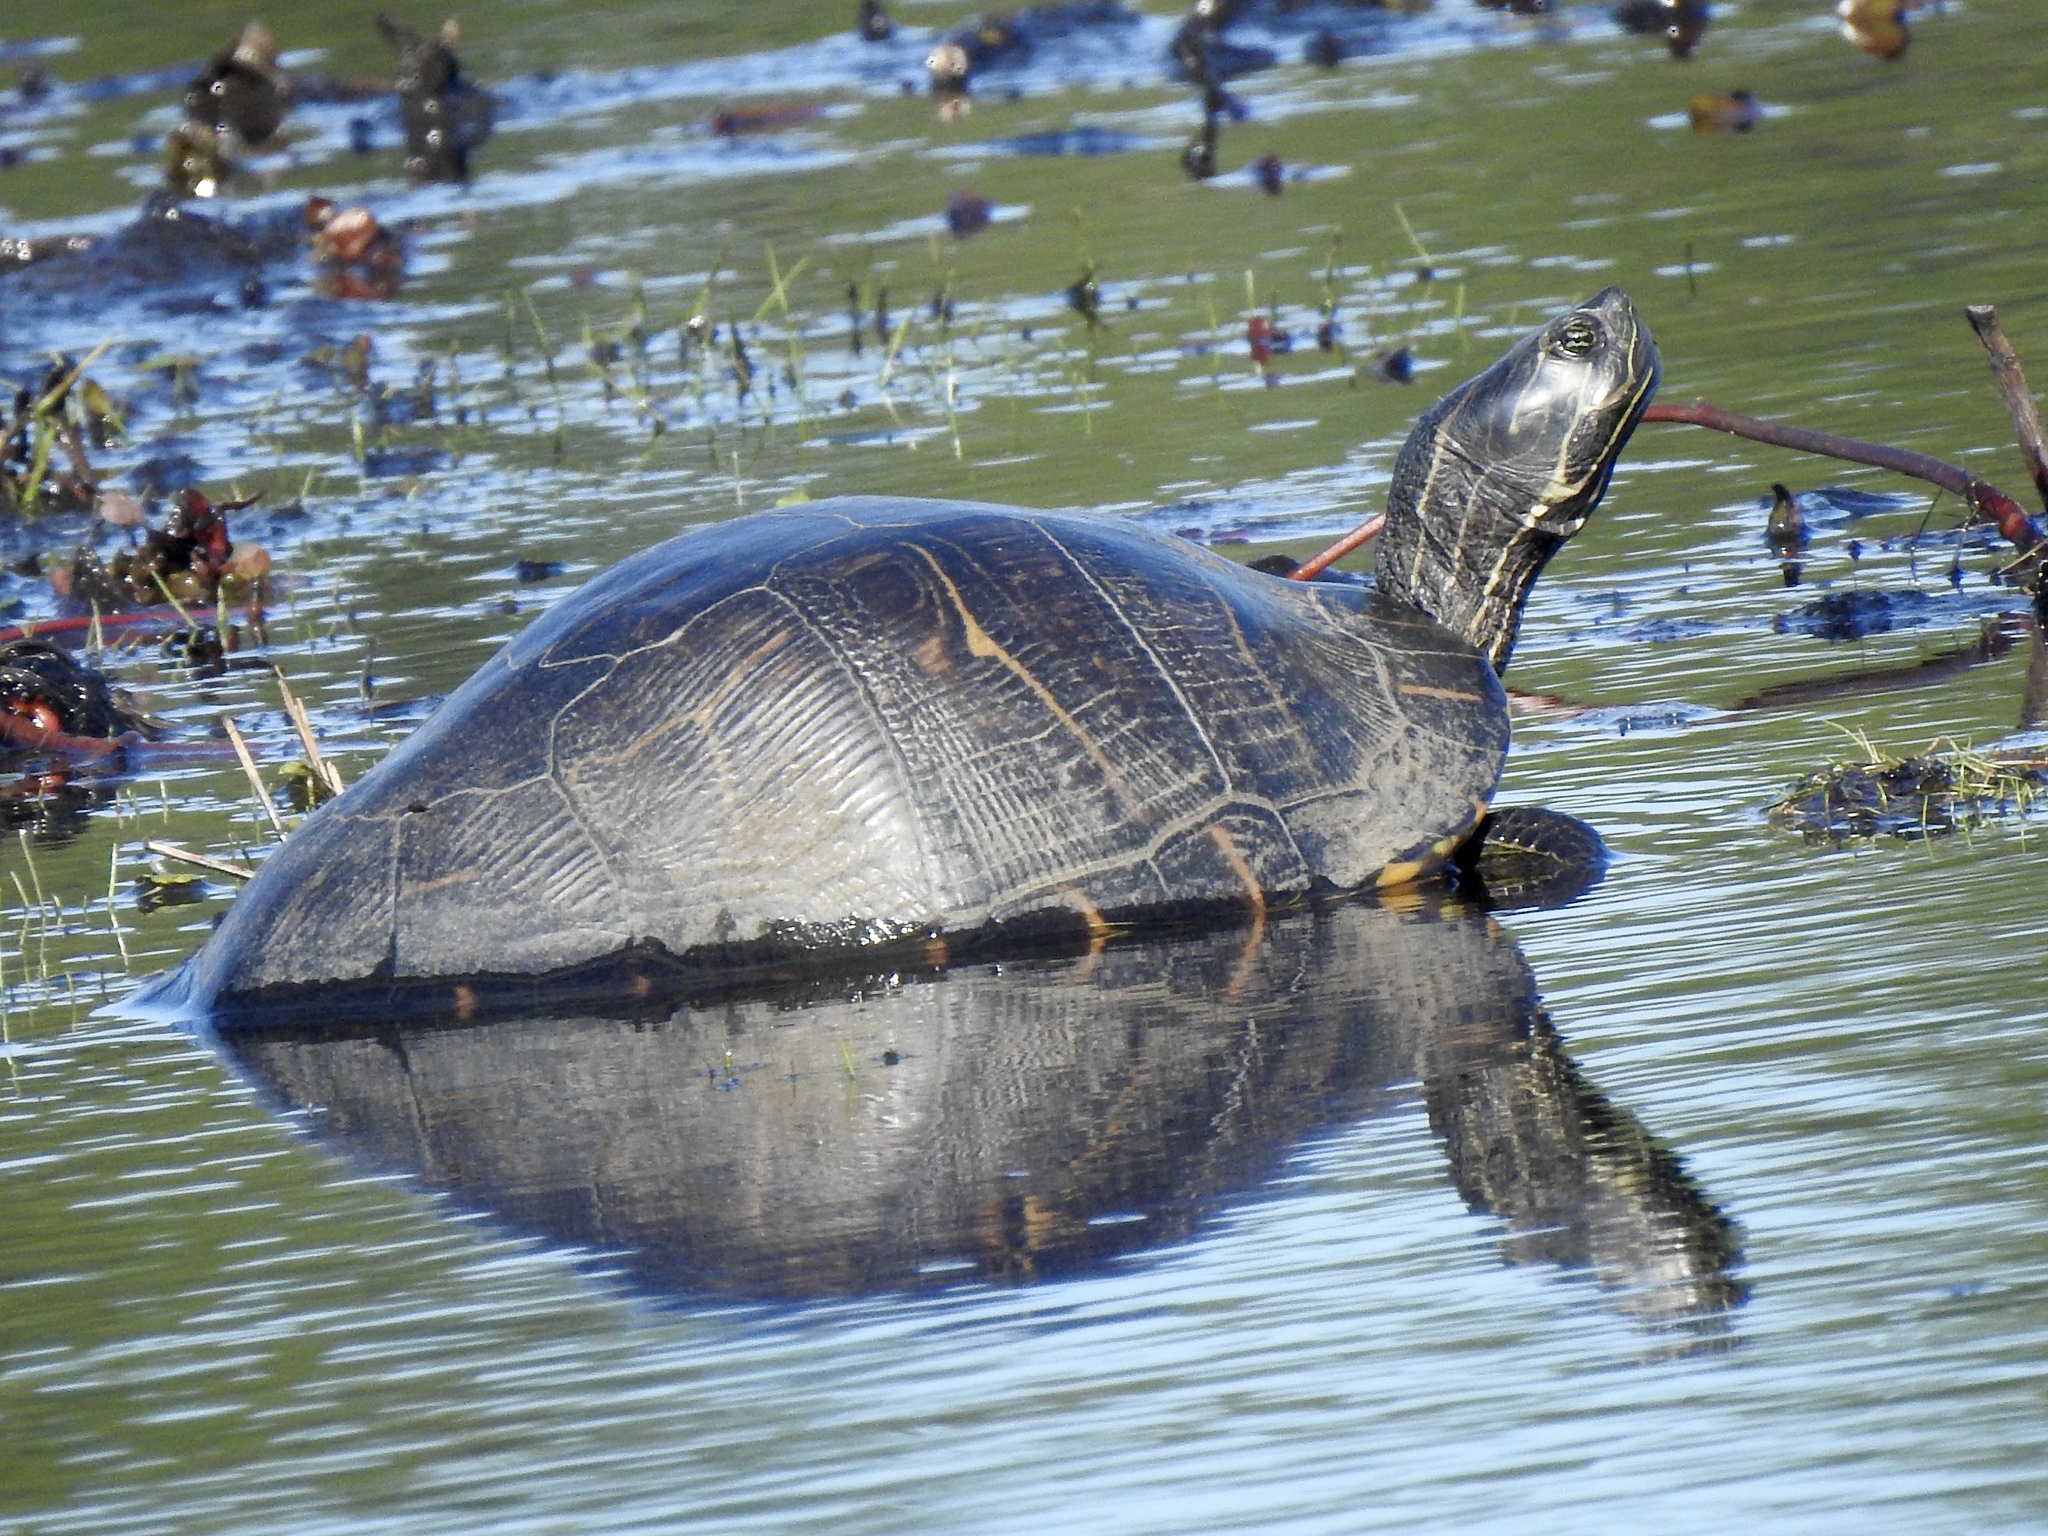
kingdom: Animalia
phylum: Chordata
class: Testudines
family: Emydidae
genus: Pseudemys
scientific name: Pseudemys concinna
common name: Eastern river cooter
